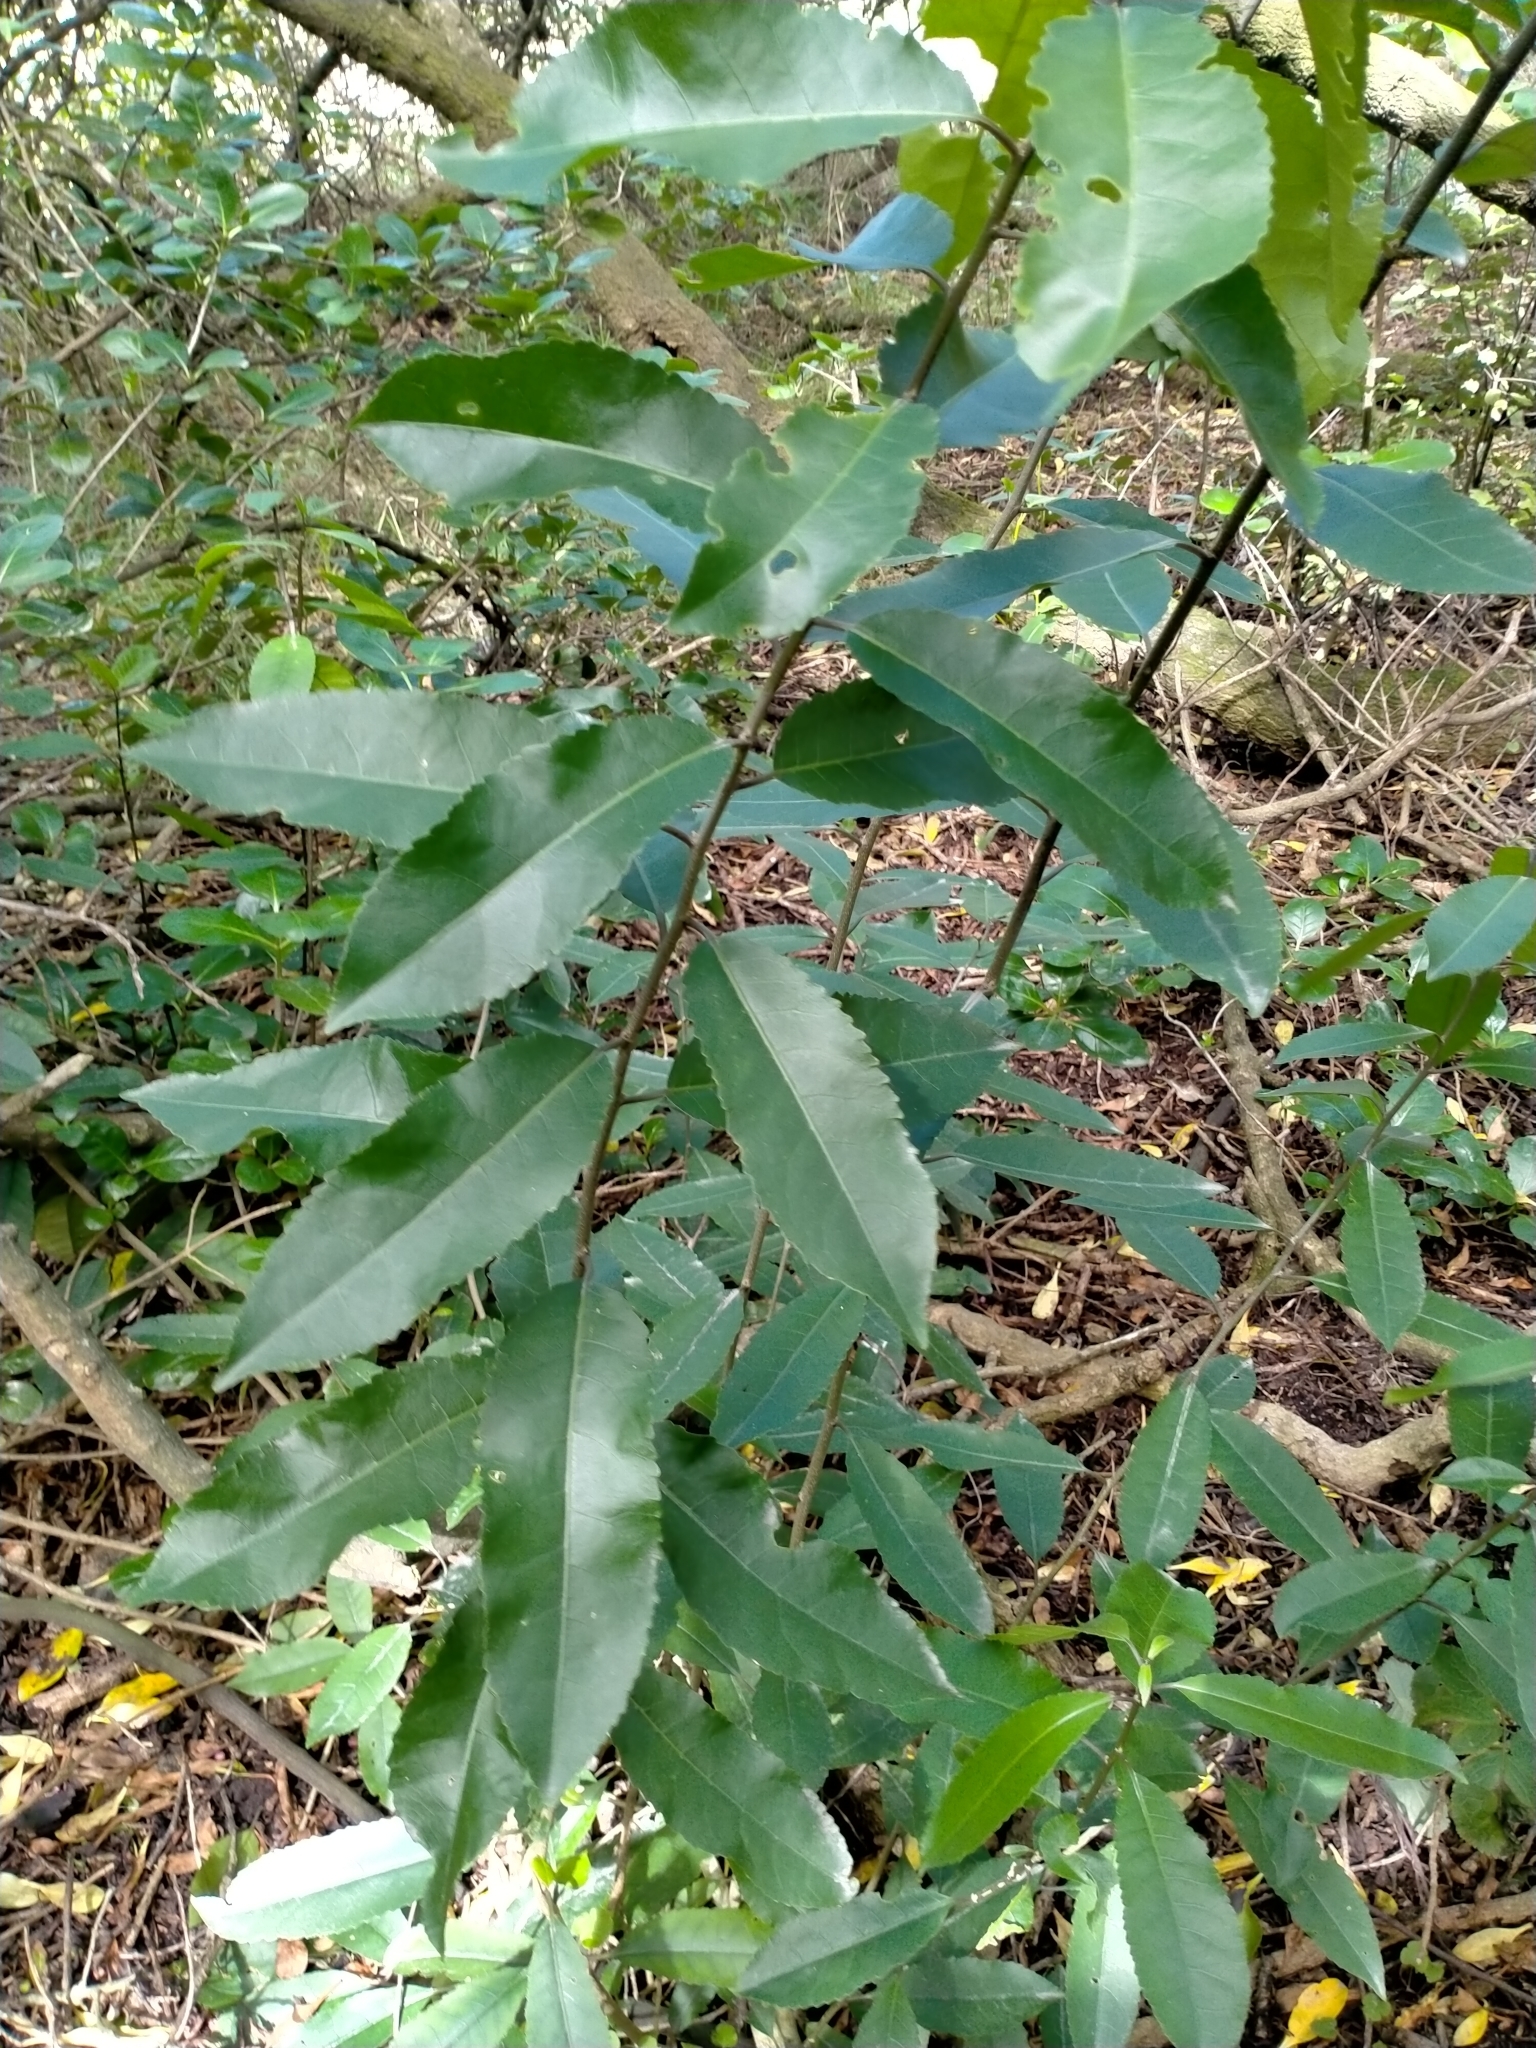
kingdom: Plantae
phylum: Tracheophyta
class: Magnoliopsida
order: Malpighiales
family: Violaceae
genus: Melicytus
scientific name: Melicytus ramiflorus
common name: Mahoe
